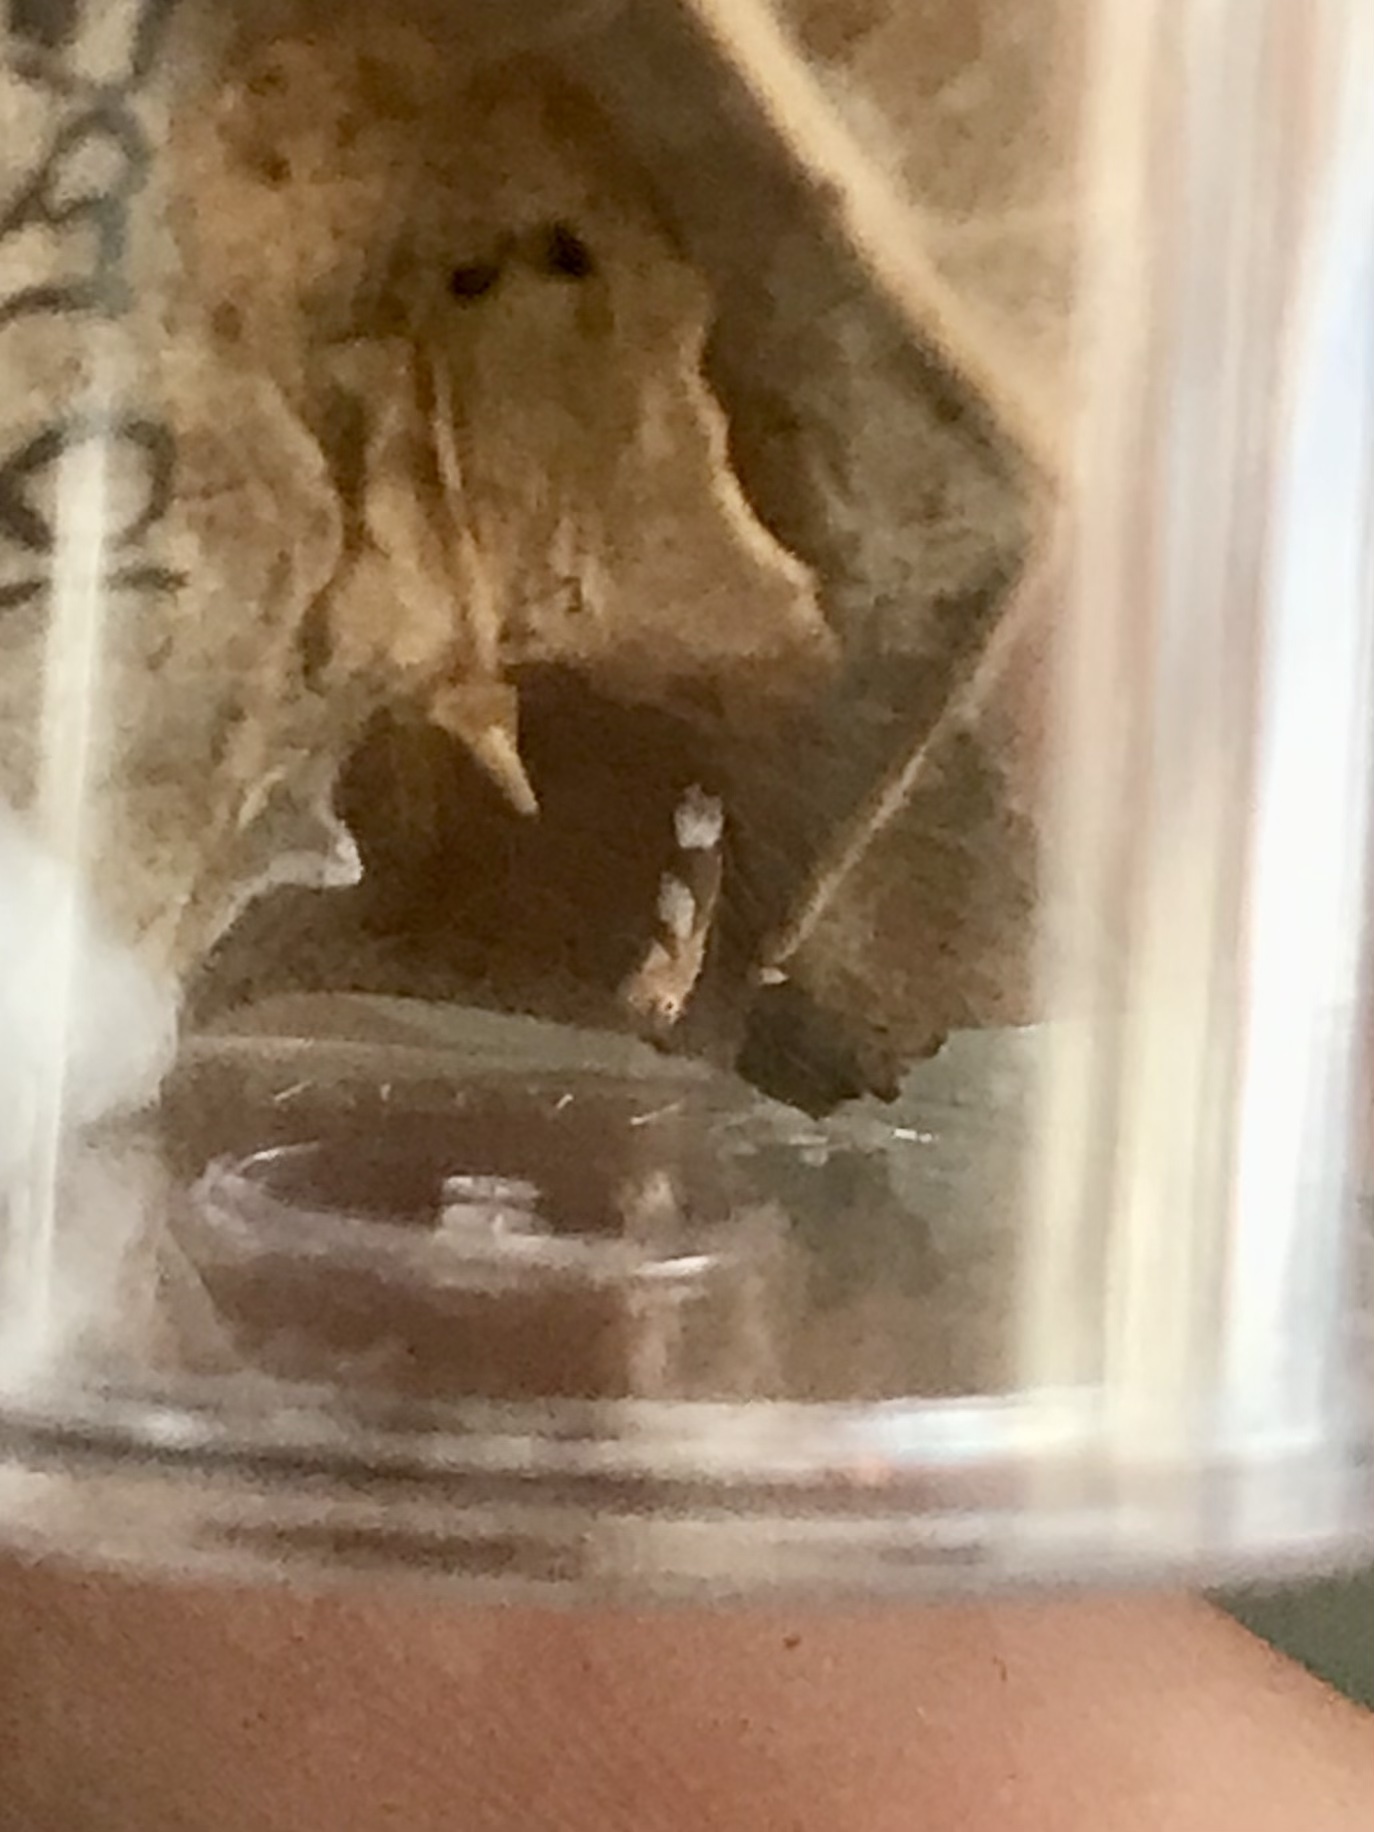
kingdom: Animalia
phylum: Arthropoda
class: Insecta
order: Lepidoptera
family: Gracillariidae
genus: Phyllonorycter
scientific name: Phyllonorycter fitchella
